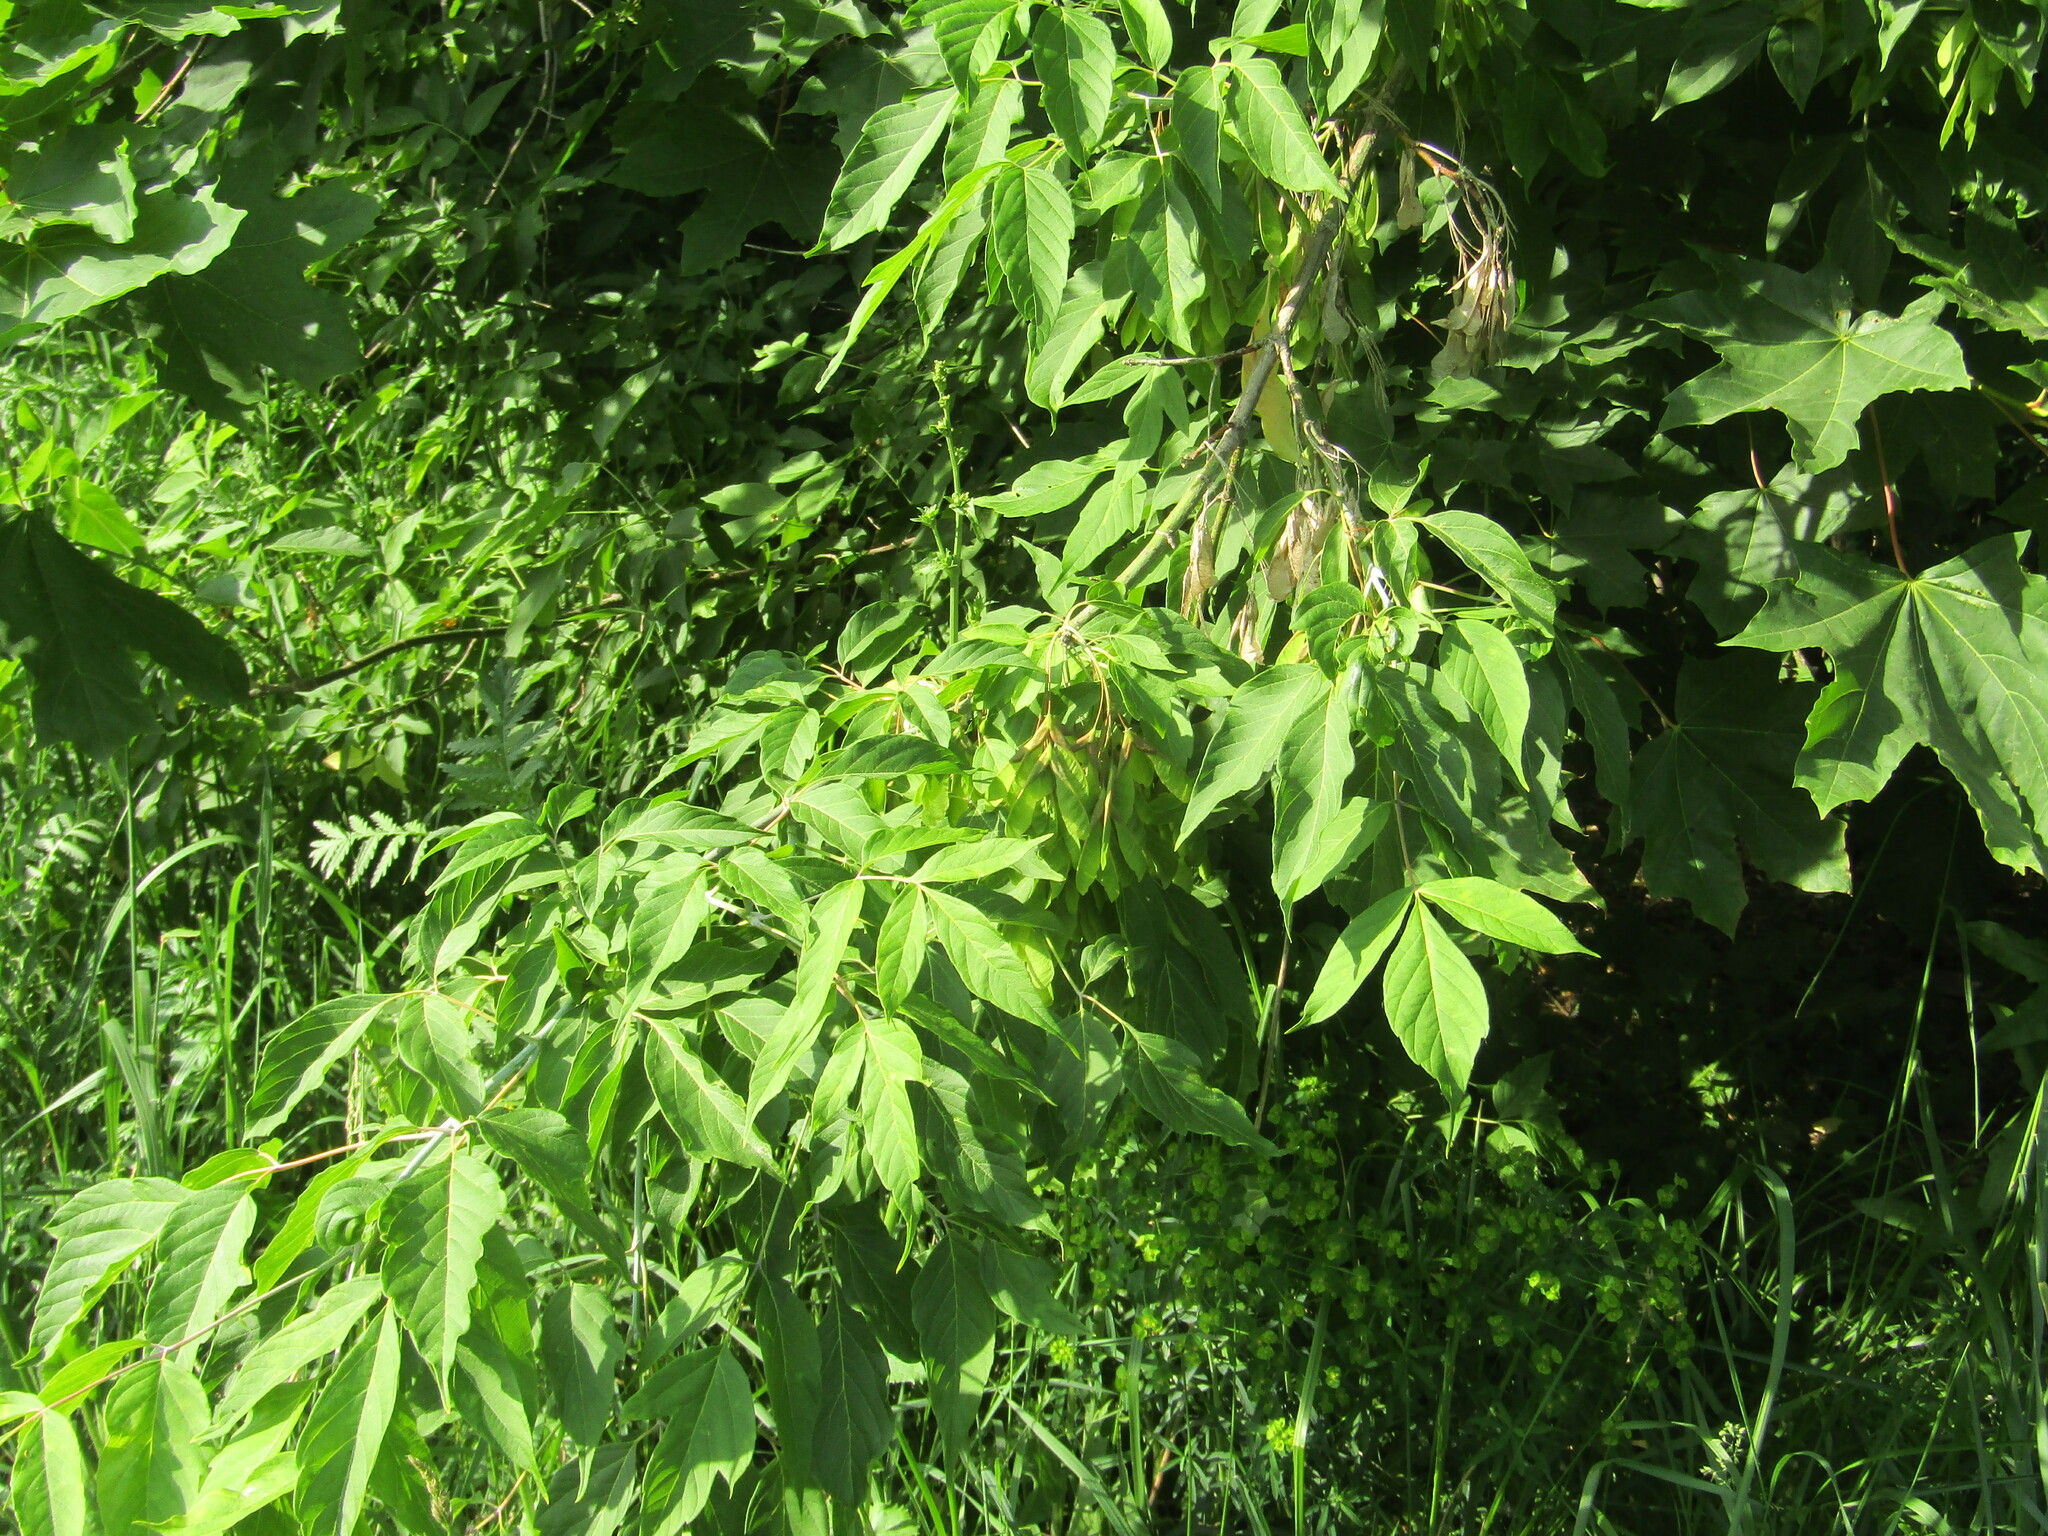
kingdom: Plantae
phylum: Tracheophyta
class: Magnoliopsida
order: Sapindales
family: Sapindaceae
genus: Acer
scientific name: Acer negundo
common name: Ashleaf maple
